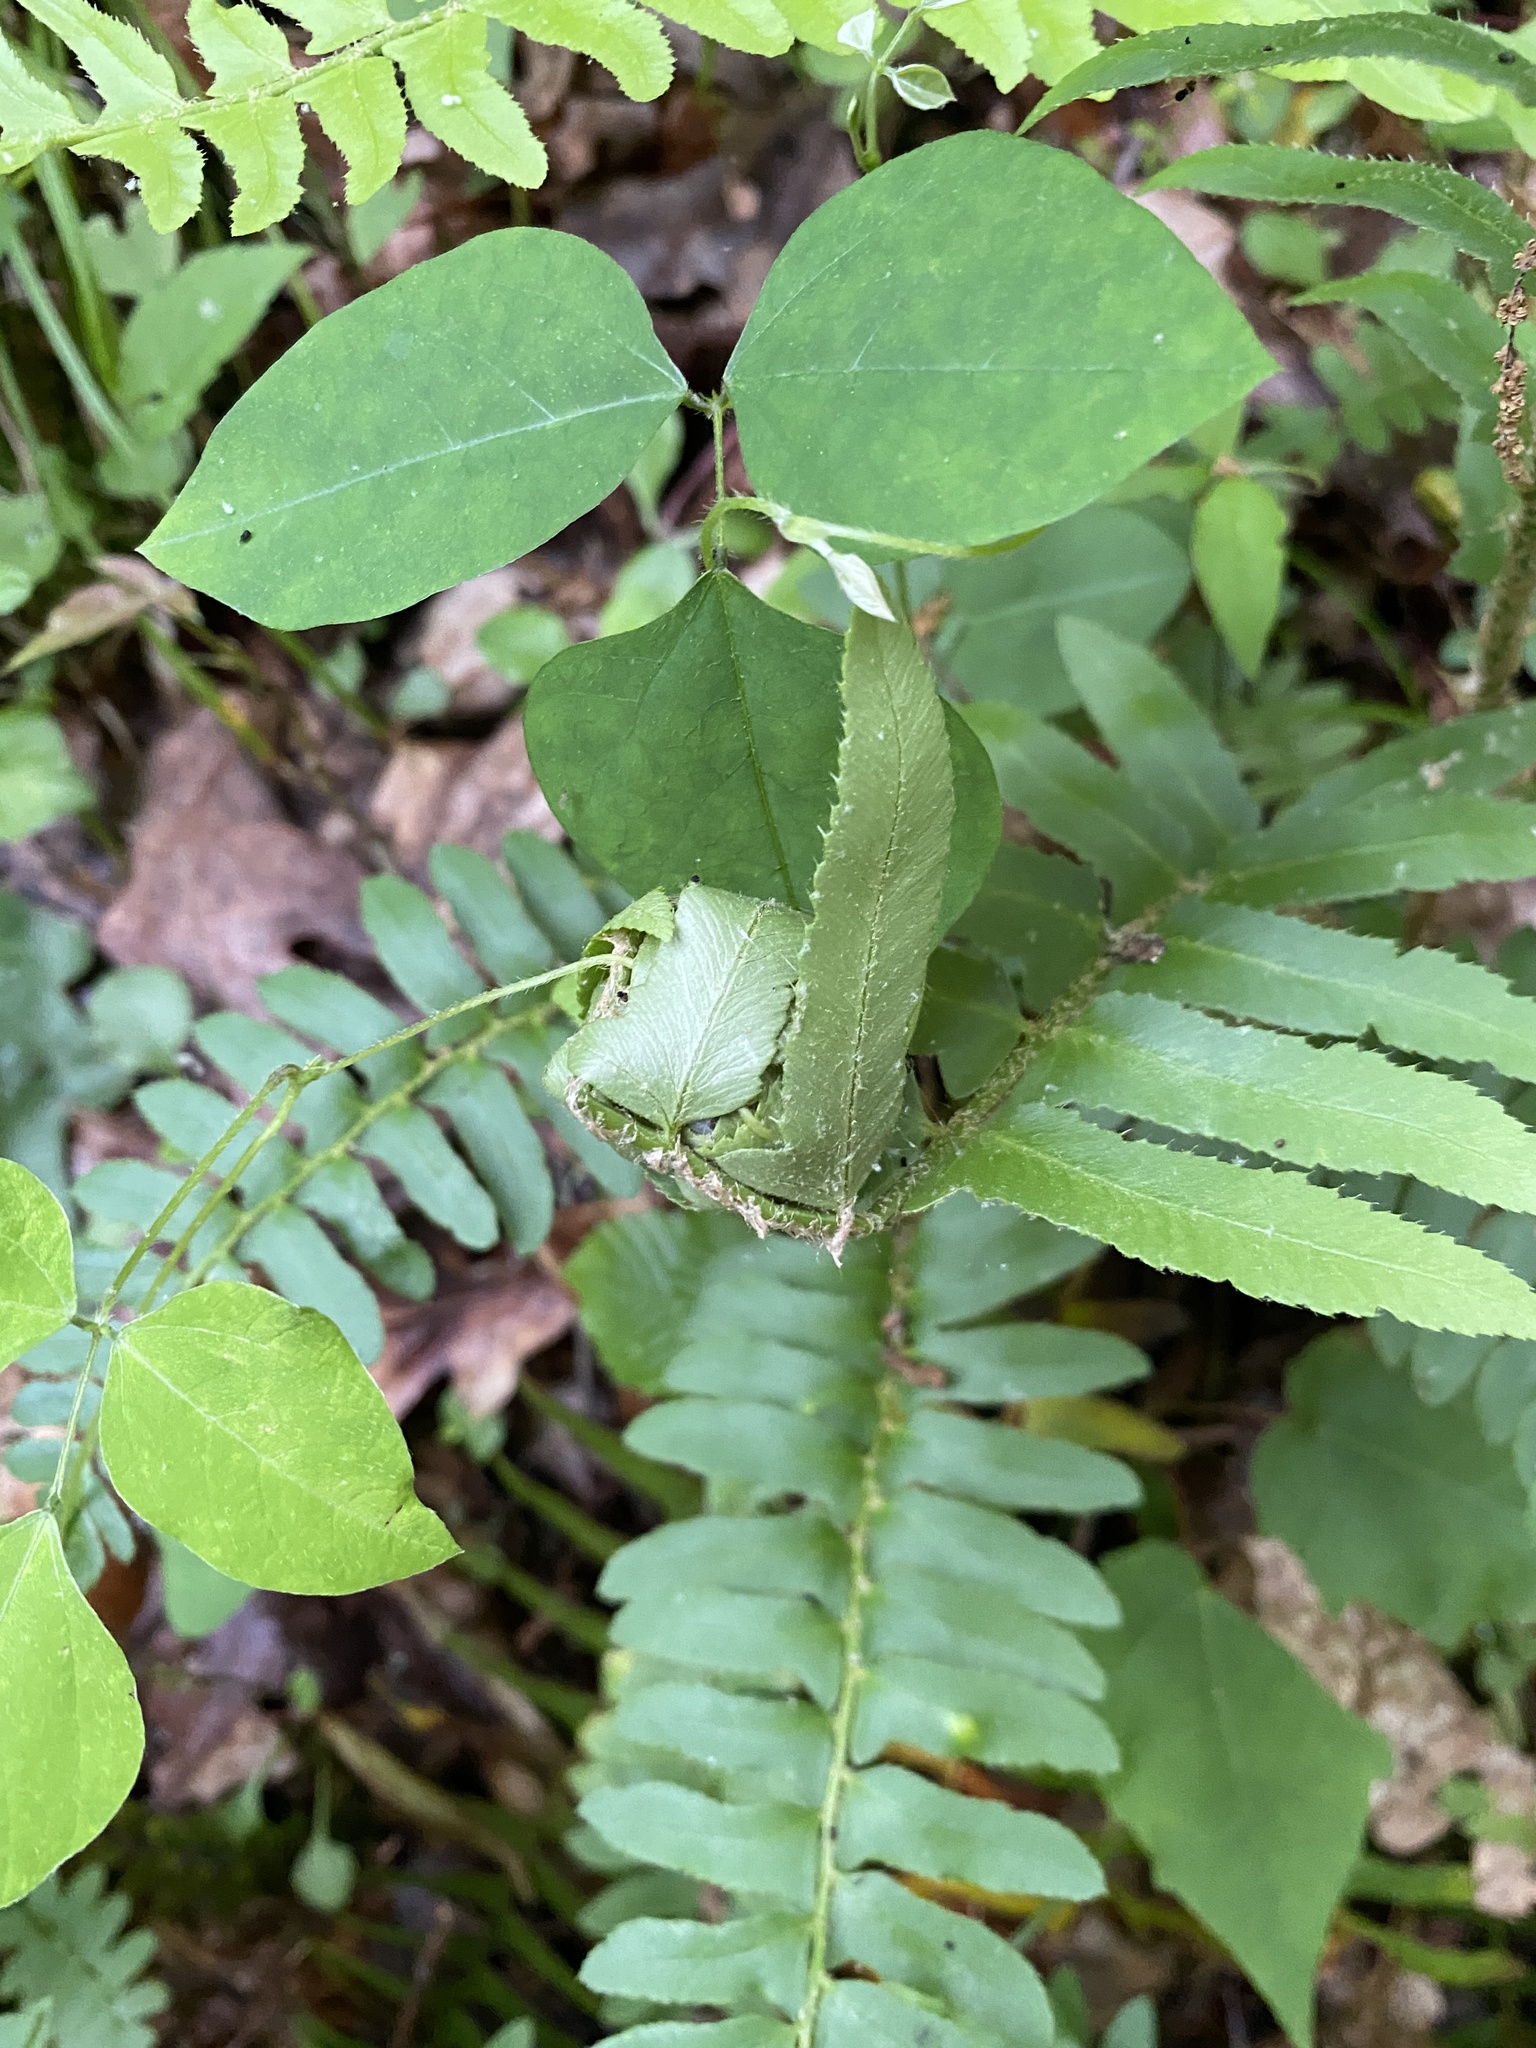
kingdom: Animalia
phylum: Arthropoda
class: Insecta
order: Lepidoptera
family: Crambidae
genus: Herpetogramma
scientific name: Herpetogramma sphingealis
